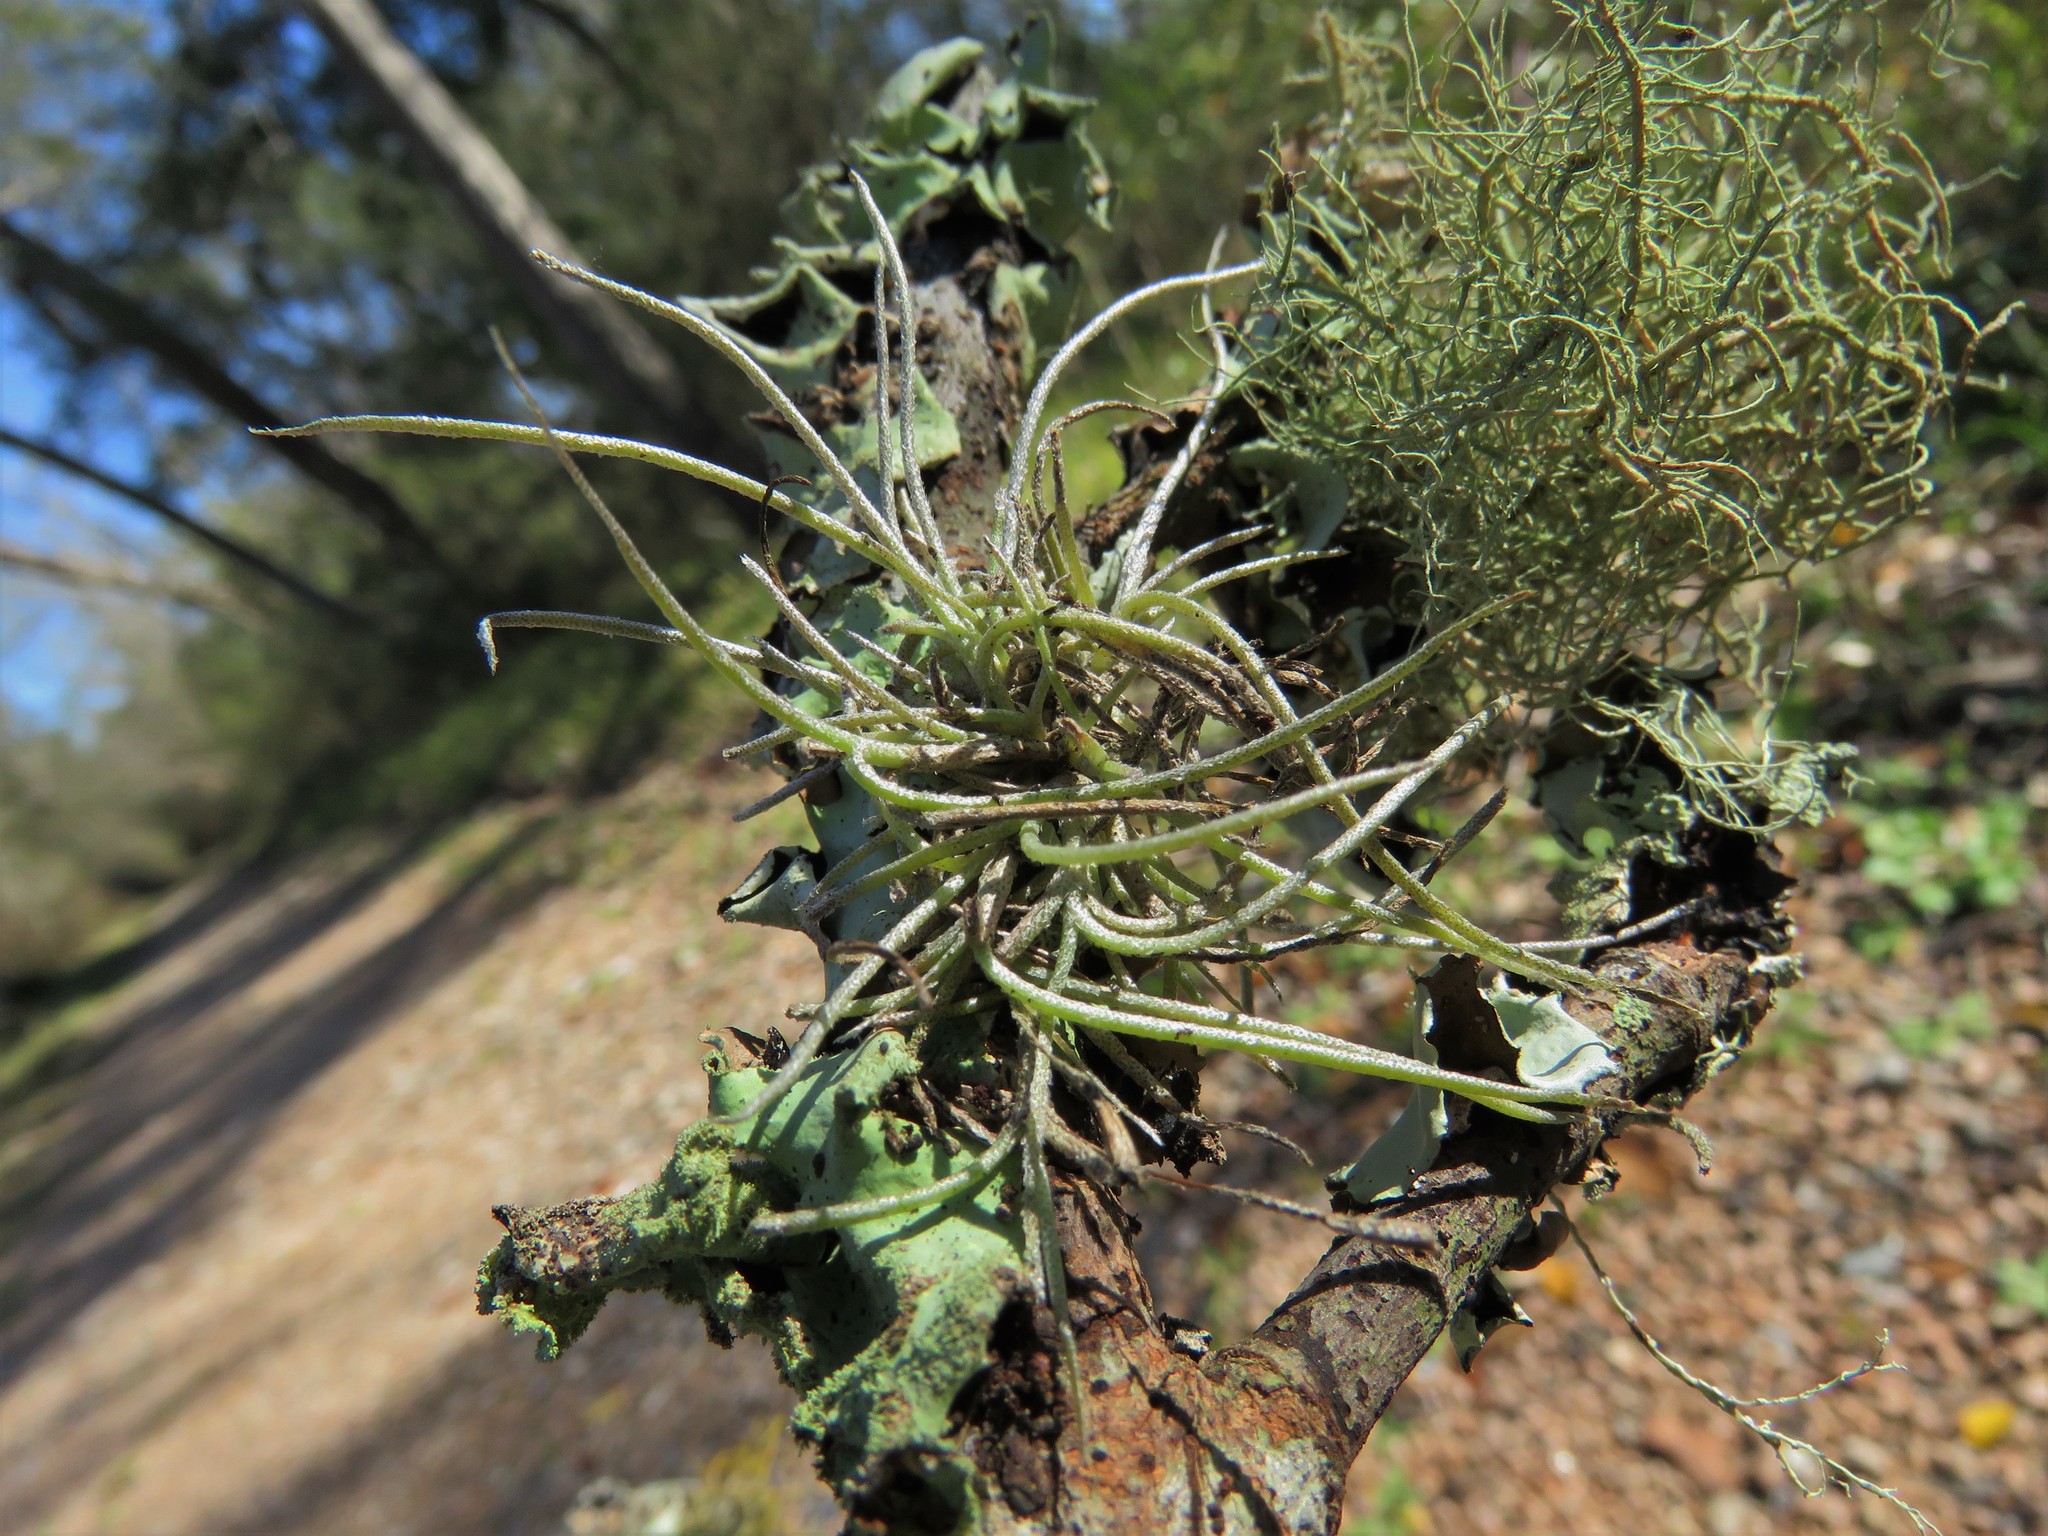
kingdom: Plantae
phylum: Tracheophyta
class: Liliopsida
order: Poales
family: Bromeliaceae
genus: Tillandsia
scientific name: Tillandsia recurvata
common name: Small ballmoss
